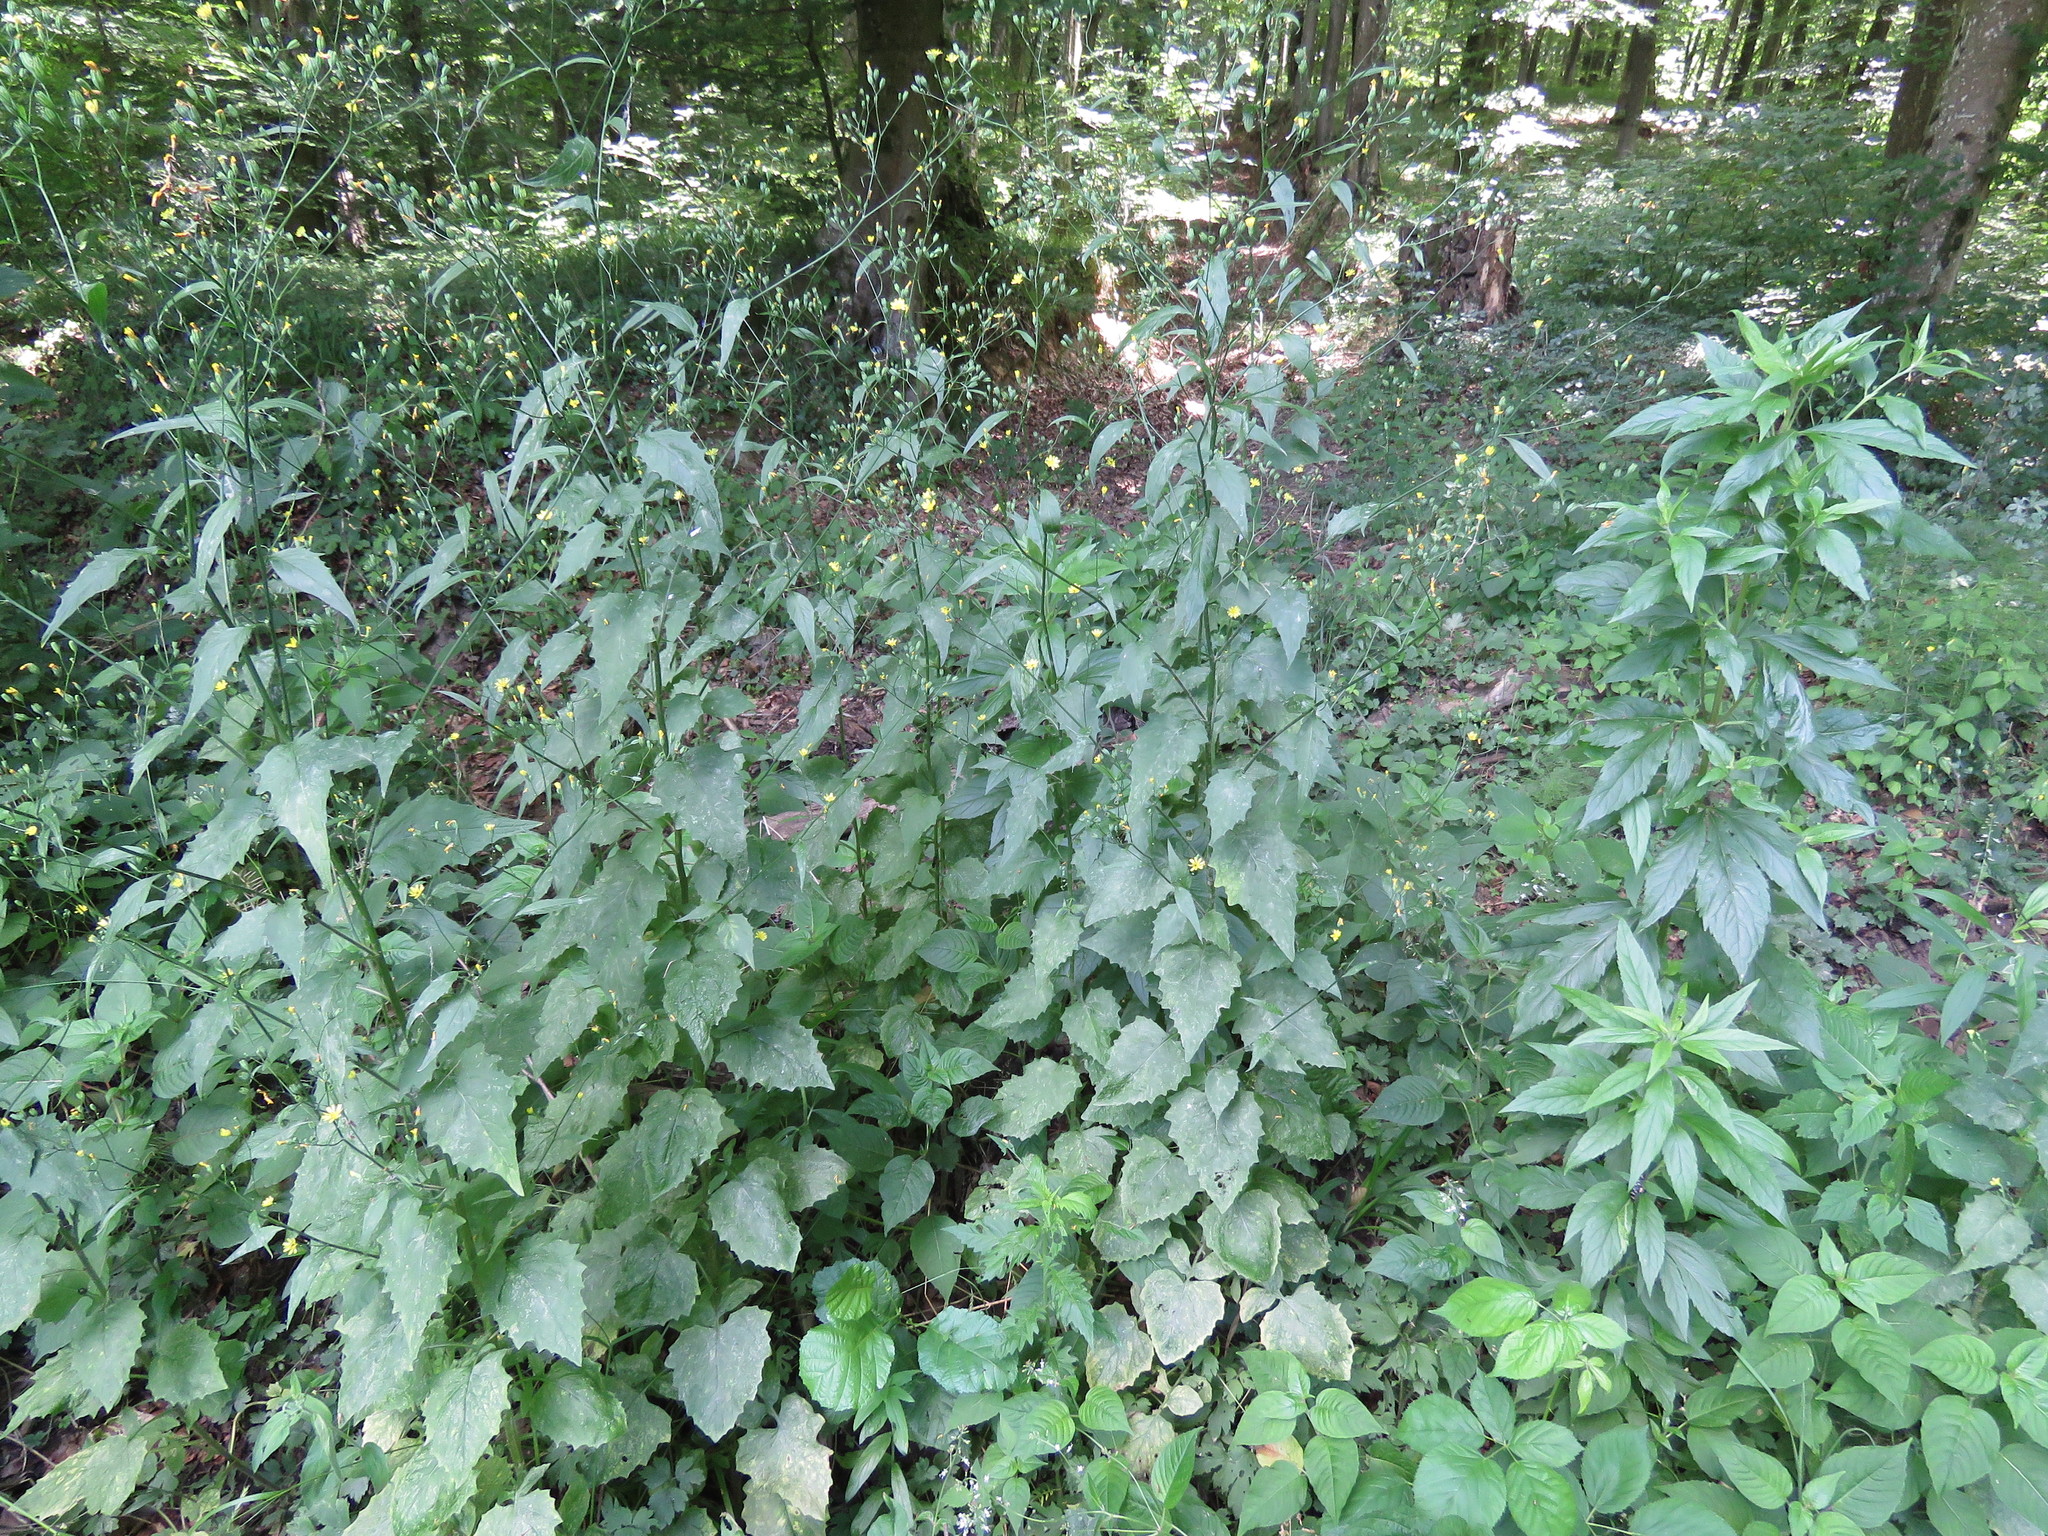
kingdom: Plantae
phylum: Tracheophyta
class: Magnoliopsida
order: Asterales
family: Asteraceae
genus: Lapsana
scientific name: Lapsana communis
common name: Nipplewort
